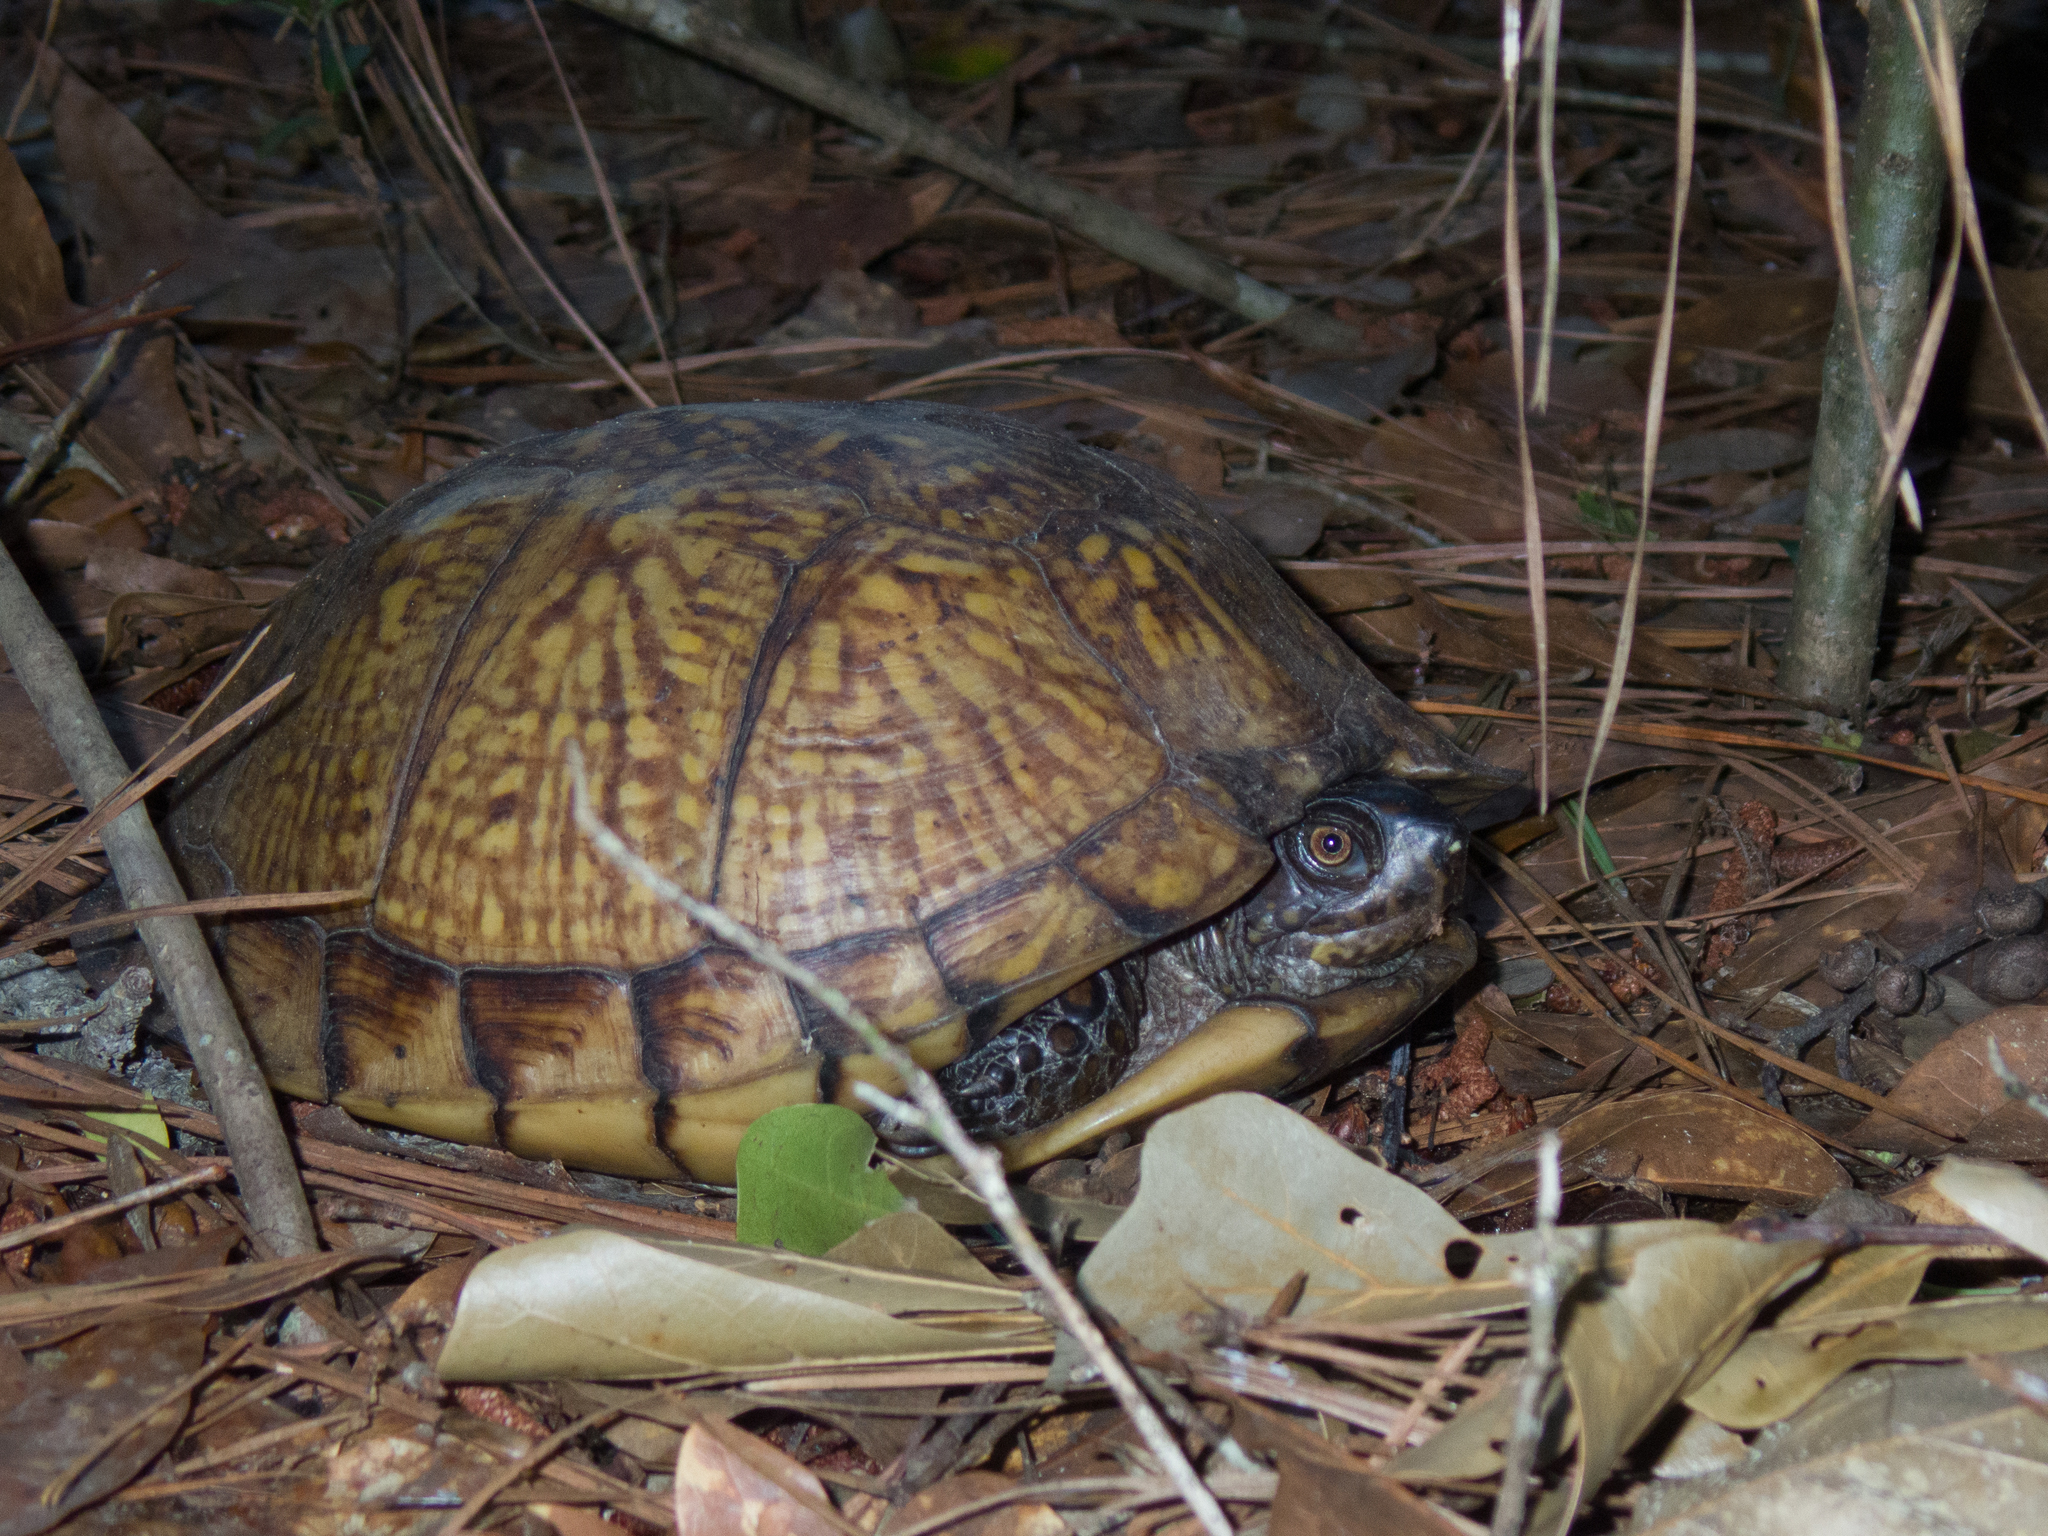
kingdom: Animalia
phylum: Chordata
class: Testudines
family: Emydidae
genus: Terrapene
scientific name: Terrapene carolina
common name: Common box turtle
